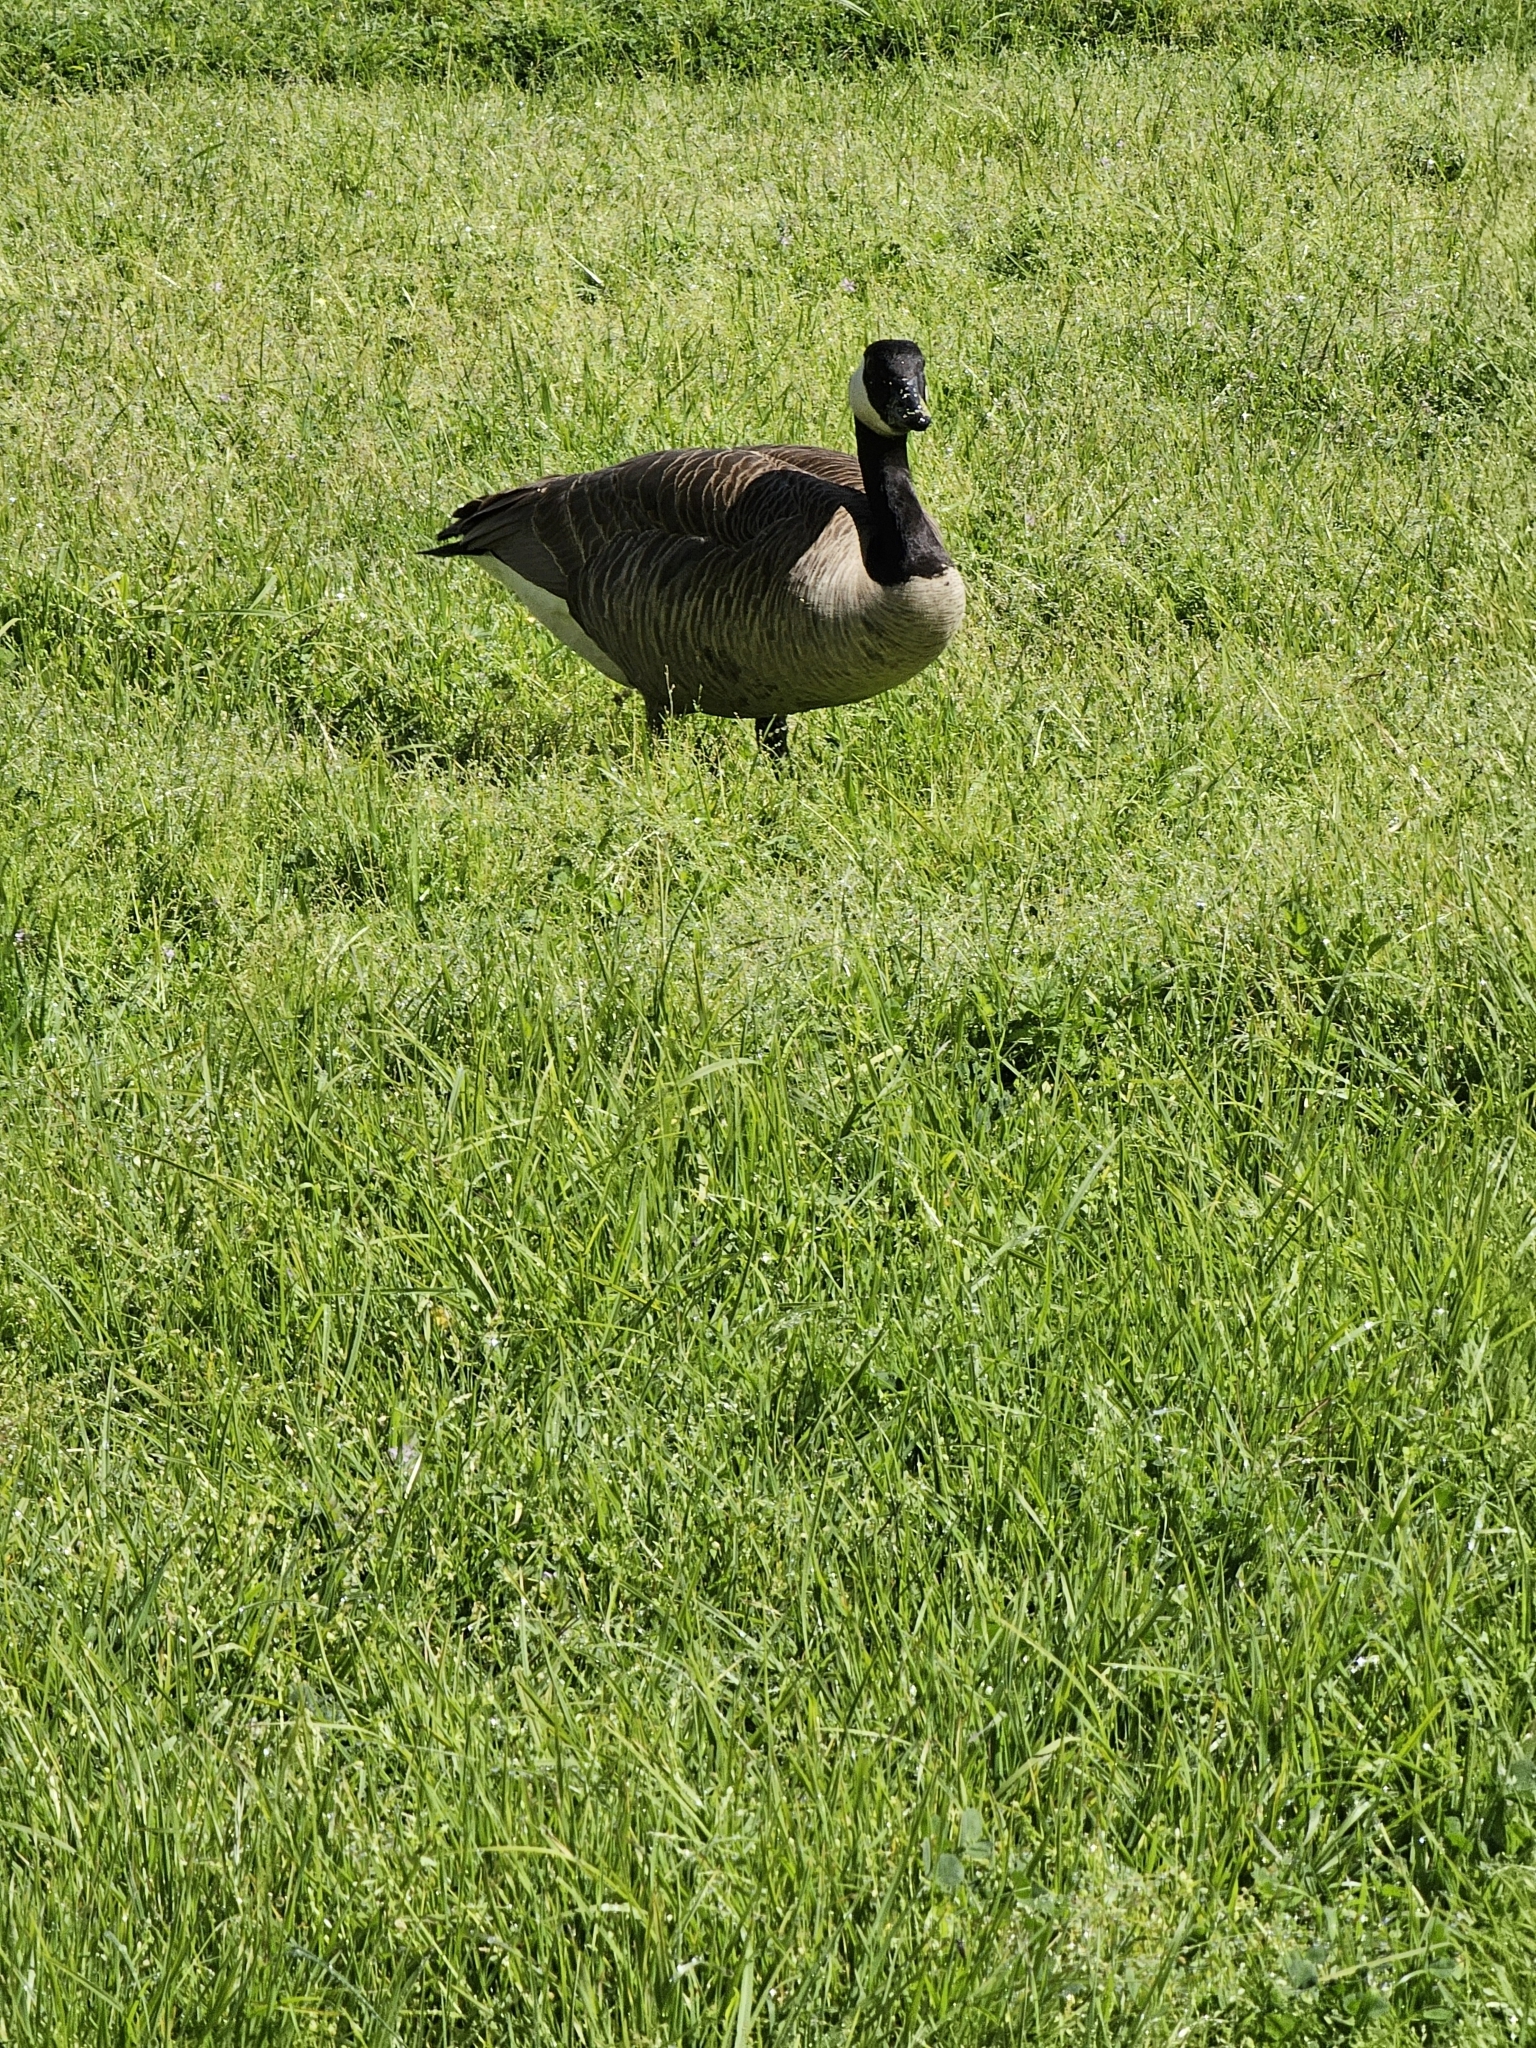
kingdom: Animalia
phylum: Chordata
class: Aves
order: Anseriformes
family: Anatidae
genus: Branta
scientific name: Branta canadensis
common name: Canada goose
